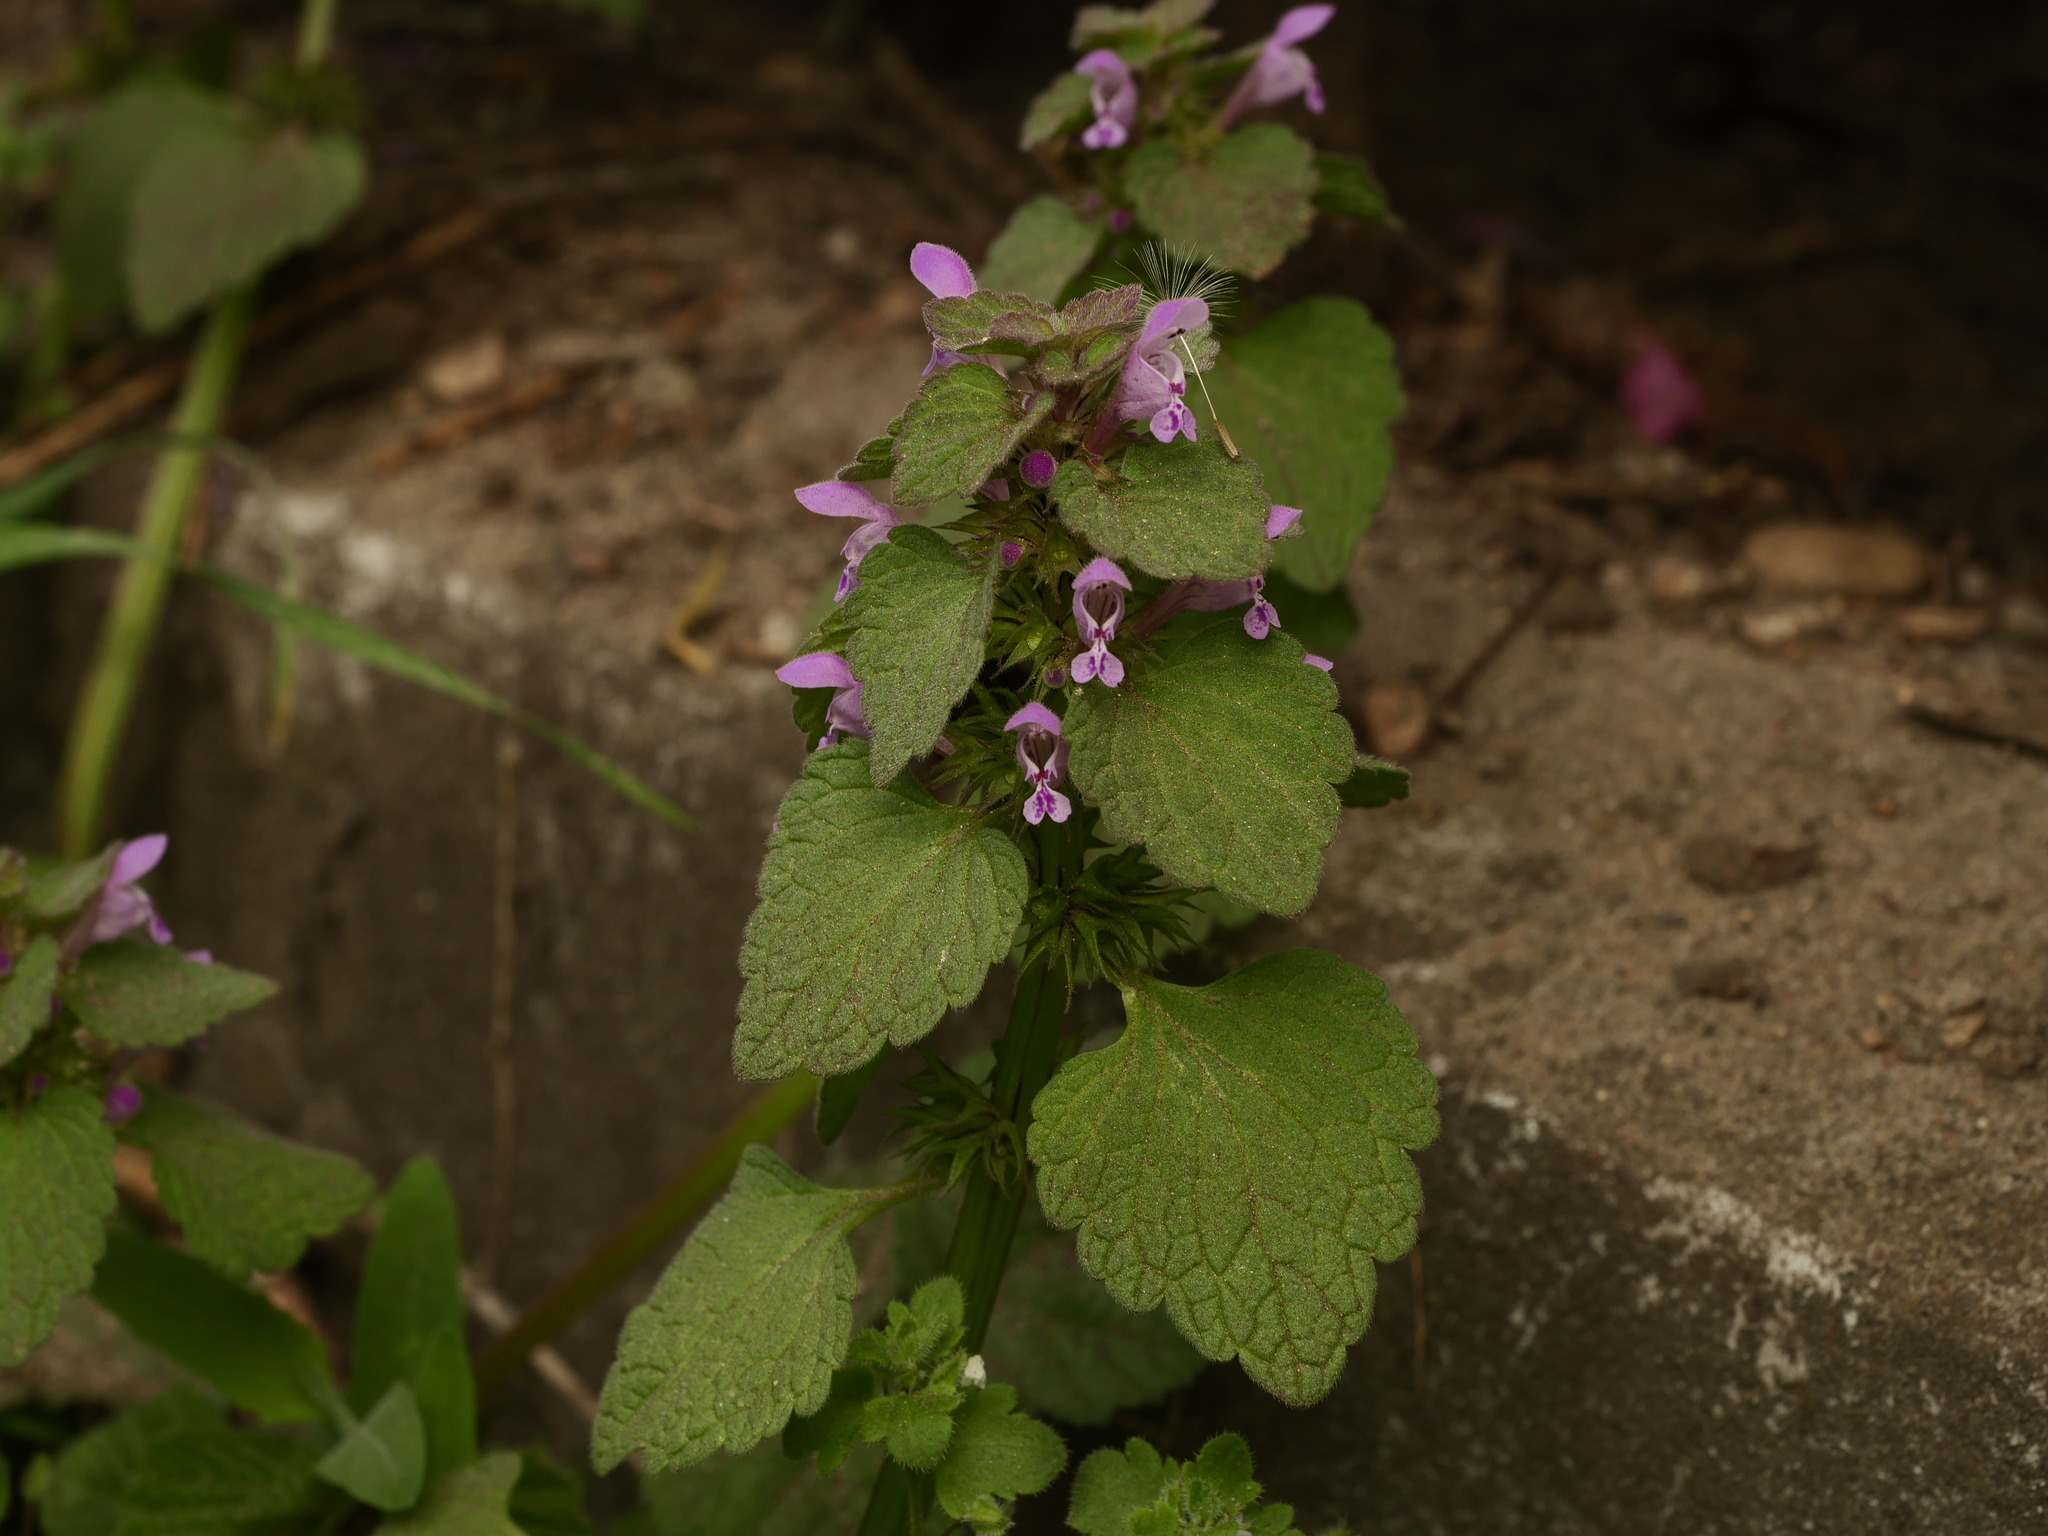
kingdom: Plantae
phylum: Tracheophyta
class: Magnoliopsida
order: Lamiales
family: Lamiaceae
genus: Lamium
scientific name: Lamium purpureum
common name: Red dead-nettle
